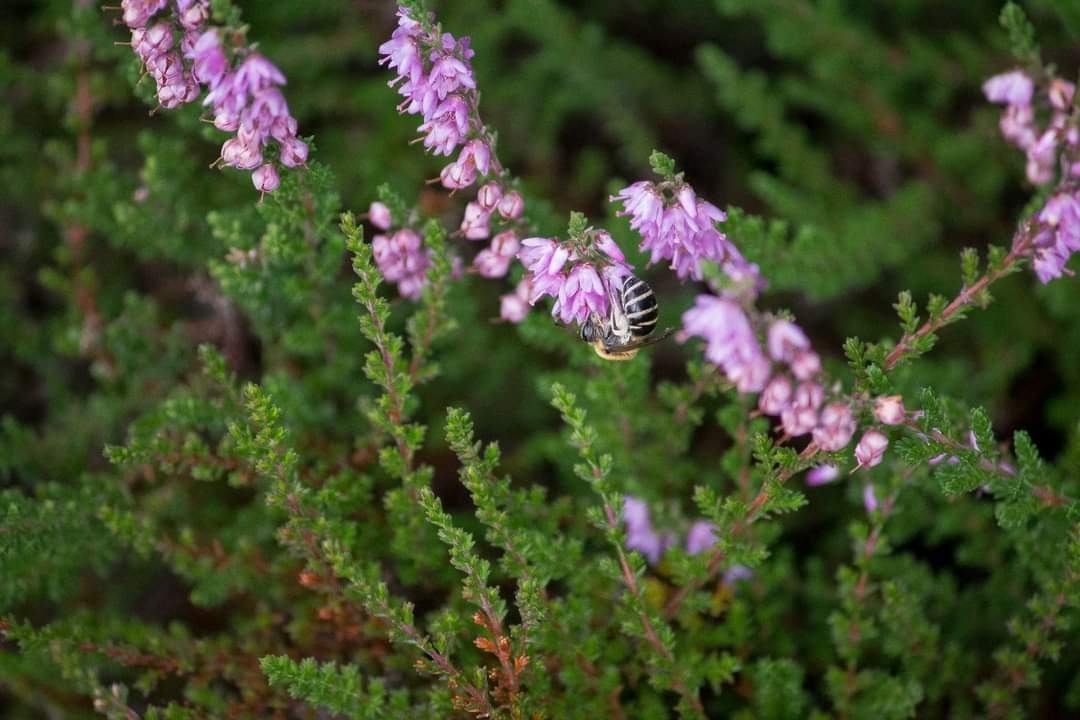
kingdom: Animalia
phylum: Arthropoda
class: Insecta
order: Hymenoptera
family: Colletidae
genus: Colletes
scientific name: Colletes succinctus
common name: Girdled colletes
